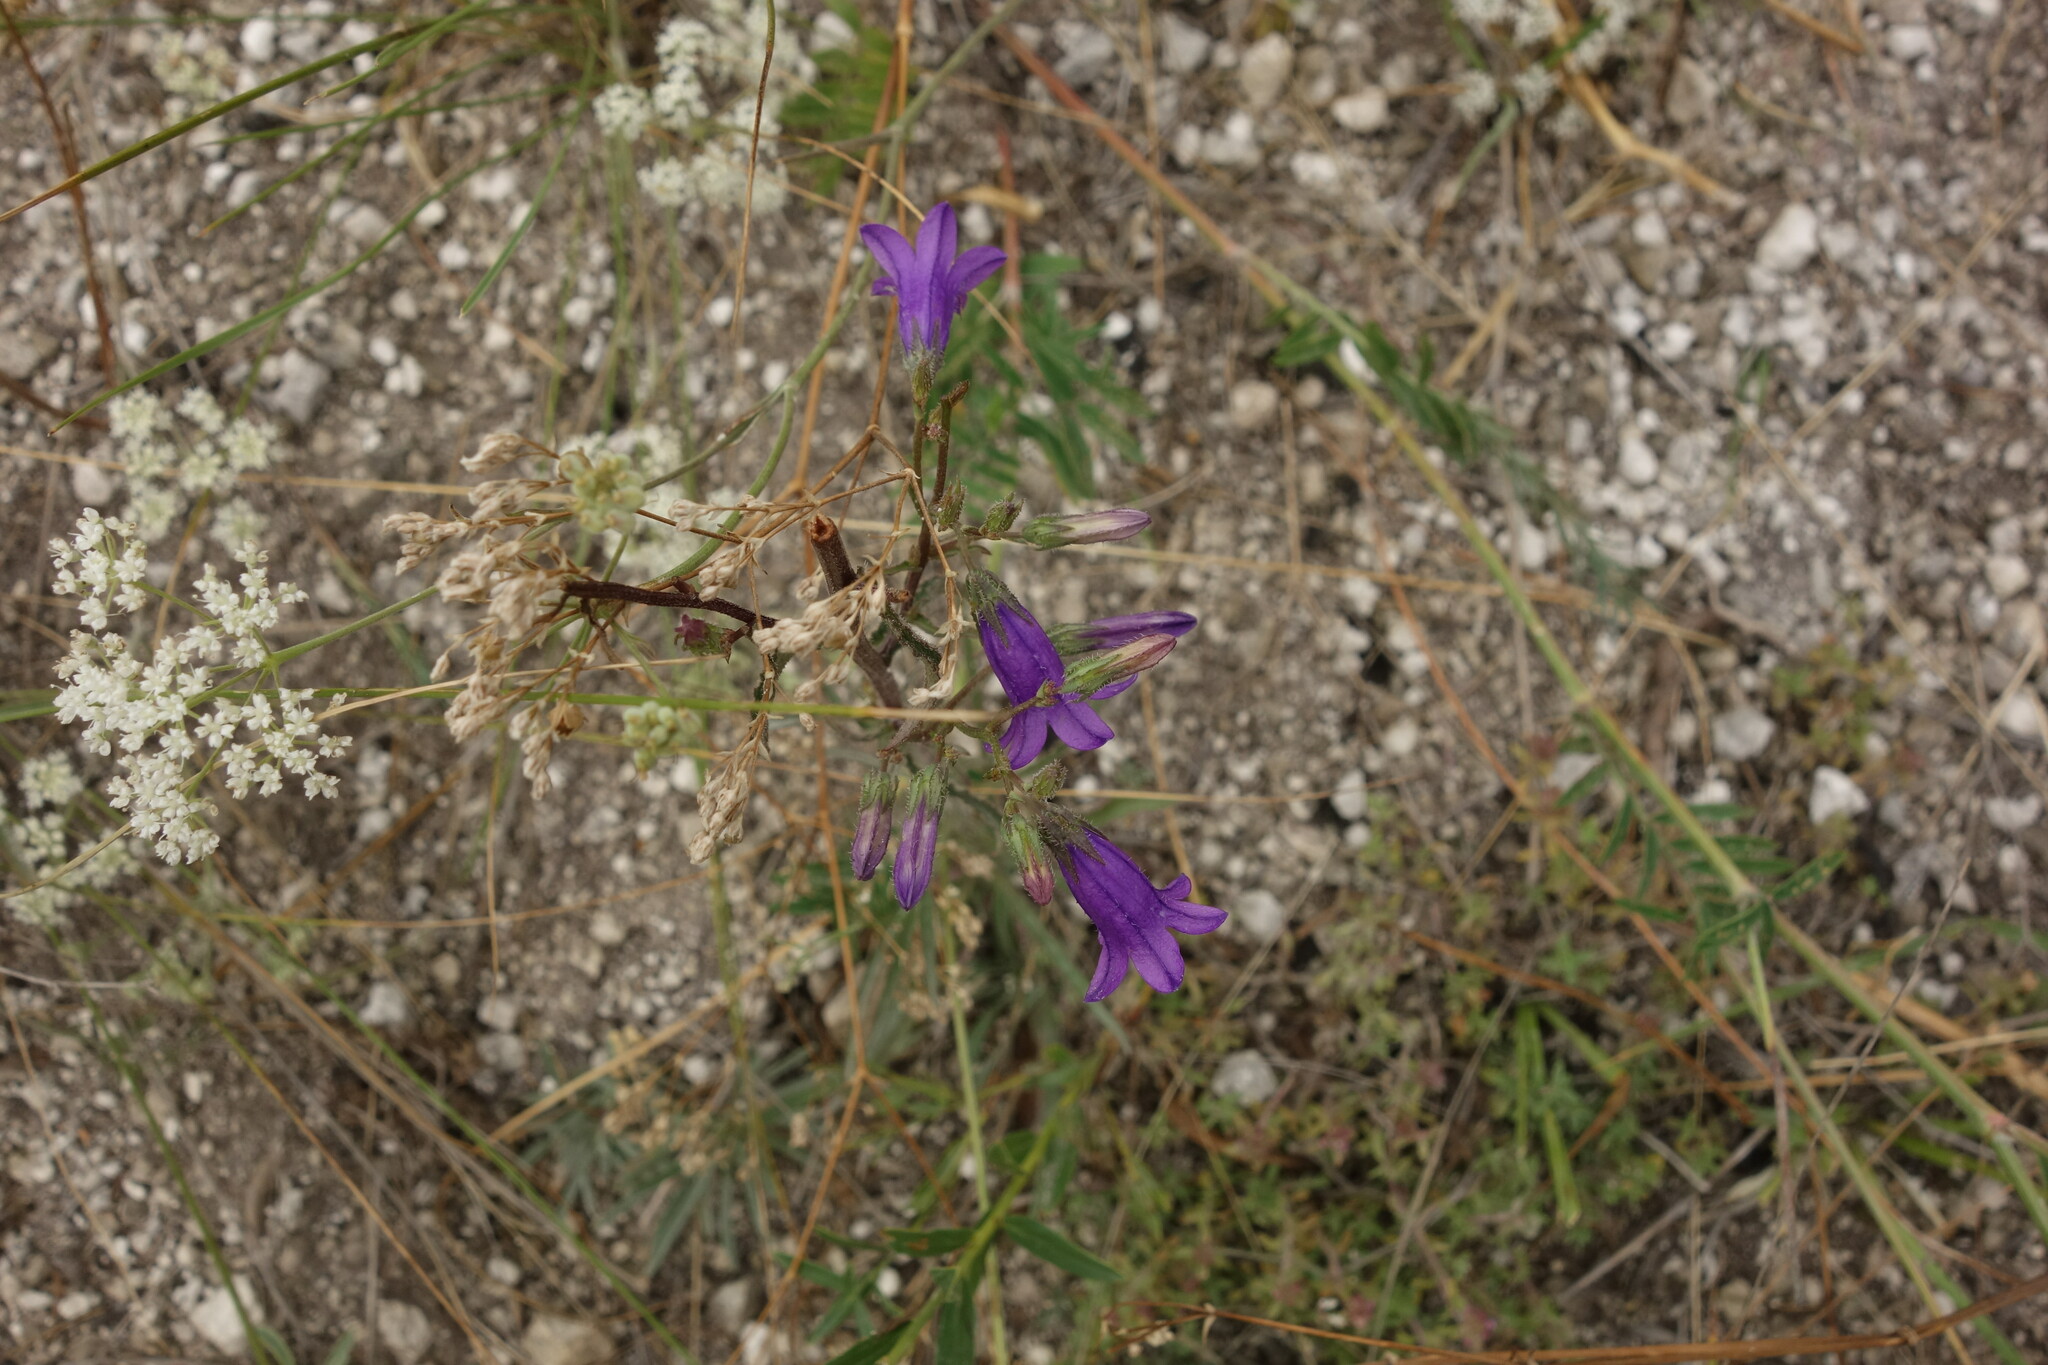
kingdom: Plantae
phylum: Tracheophyta
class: Magnoliopsida
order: Asterales
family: Campanulaceae
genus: Campanula
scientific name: Campanula sibirica
